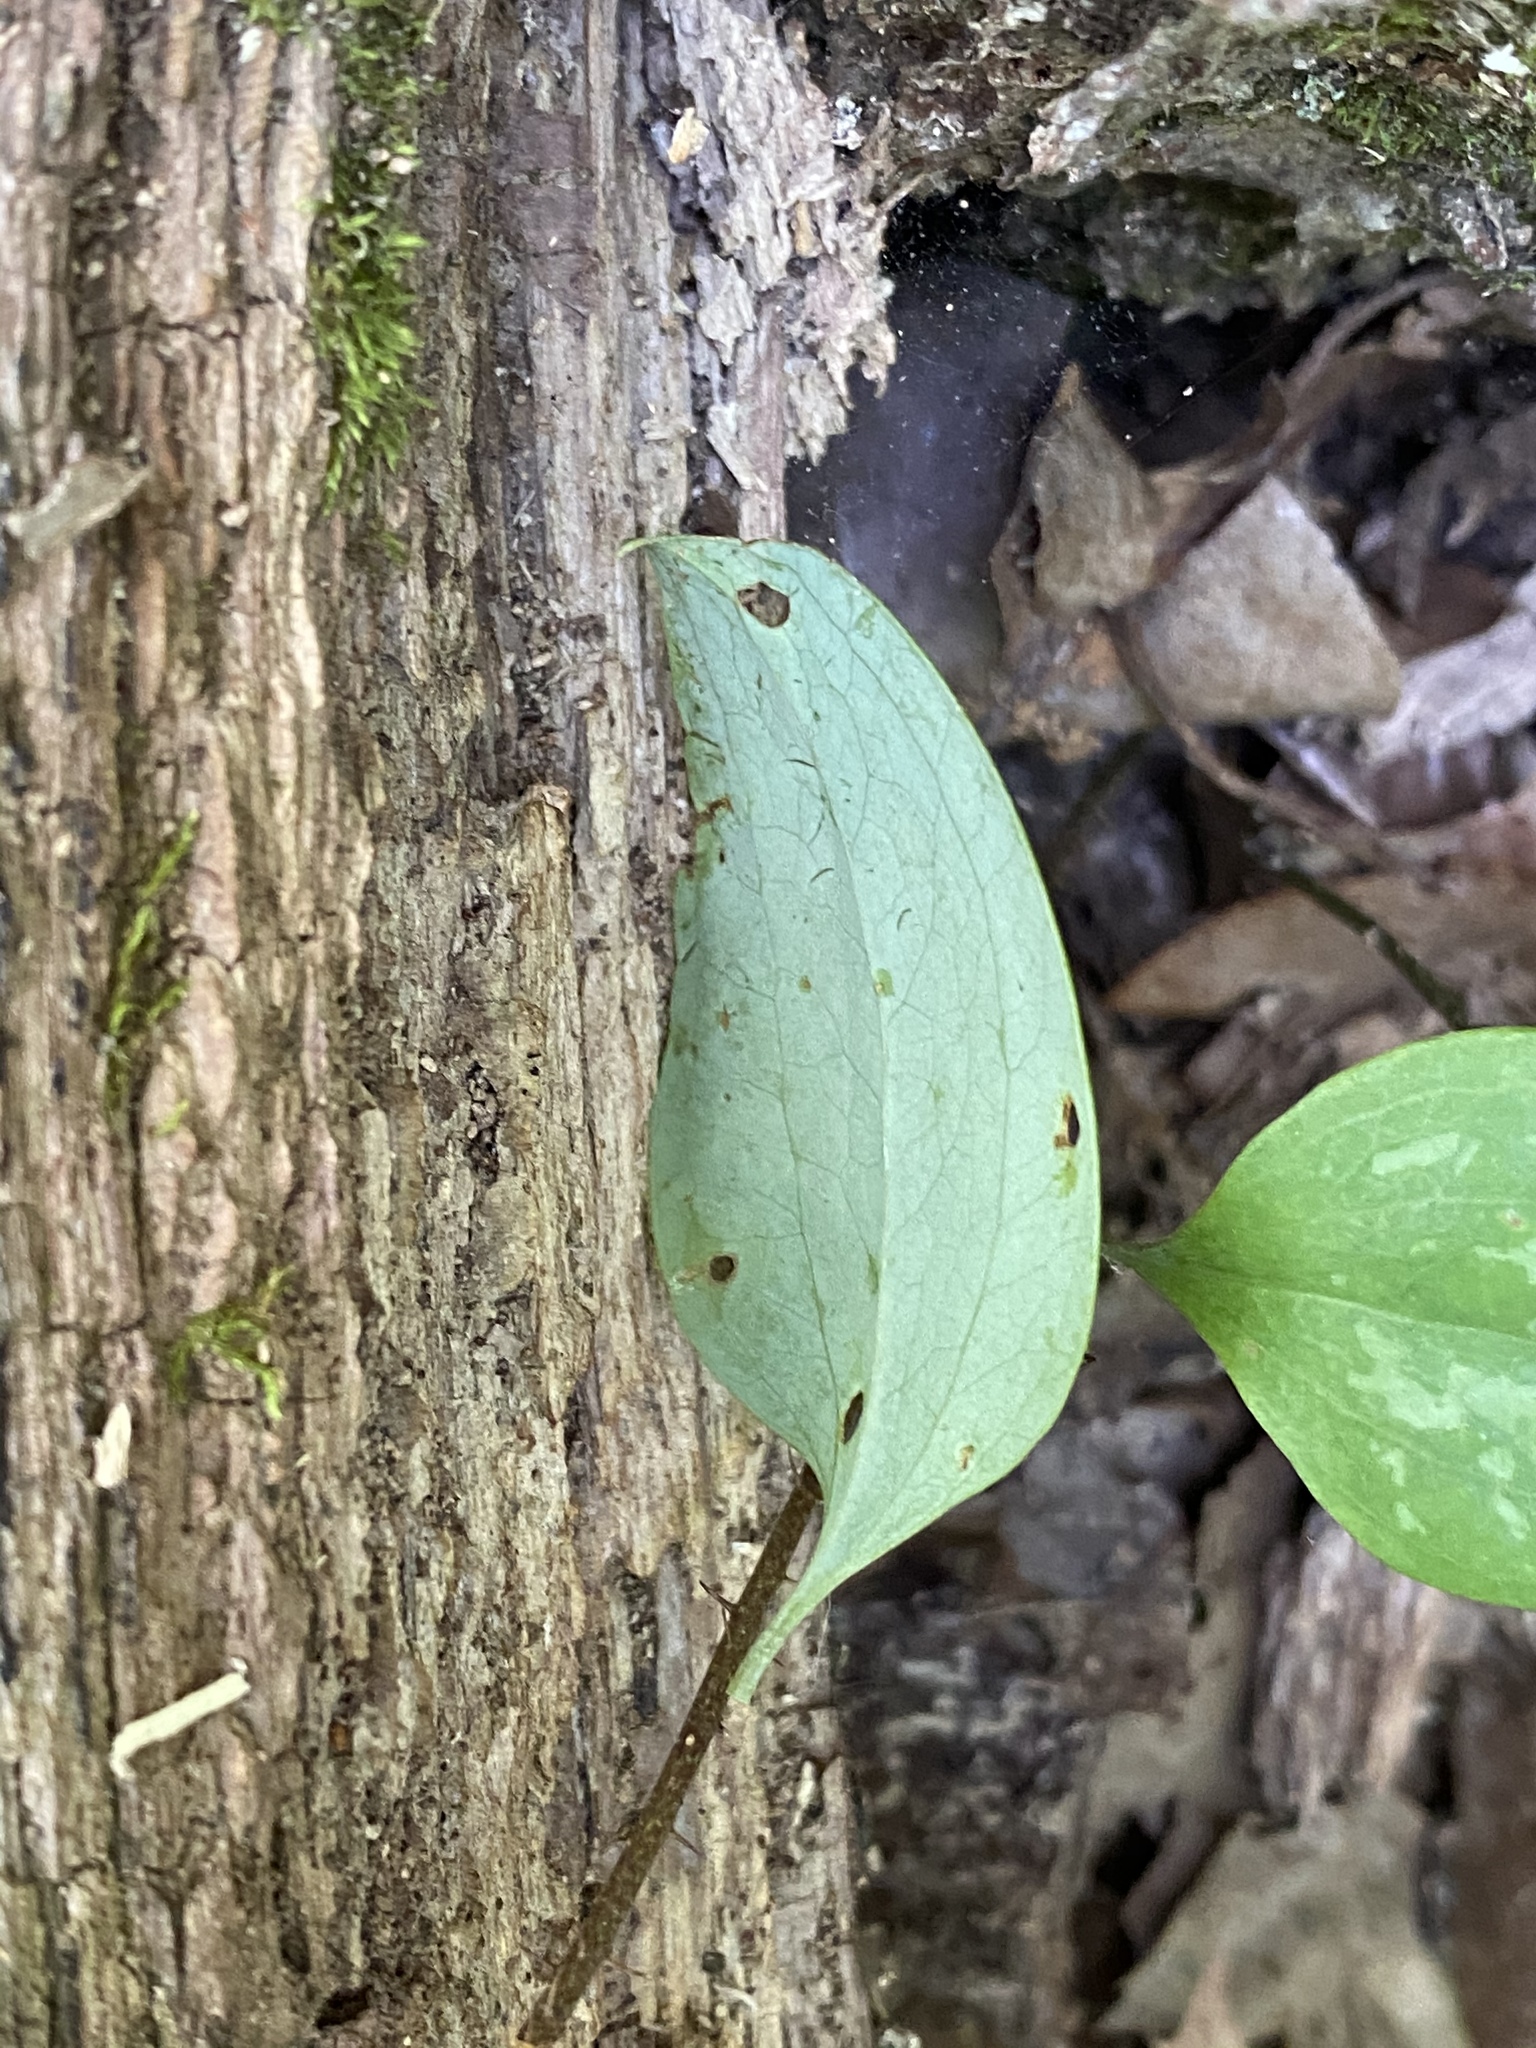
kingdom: Plantae
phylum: Tracheophyta
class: Liliopsida
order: Liliales
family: Smilacaceae
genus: Smilax
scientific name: Smilax glauca
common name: Cat greenbrier
